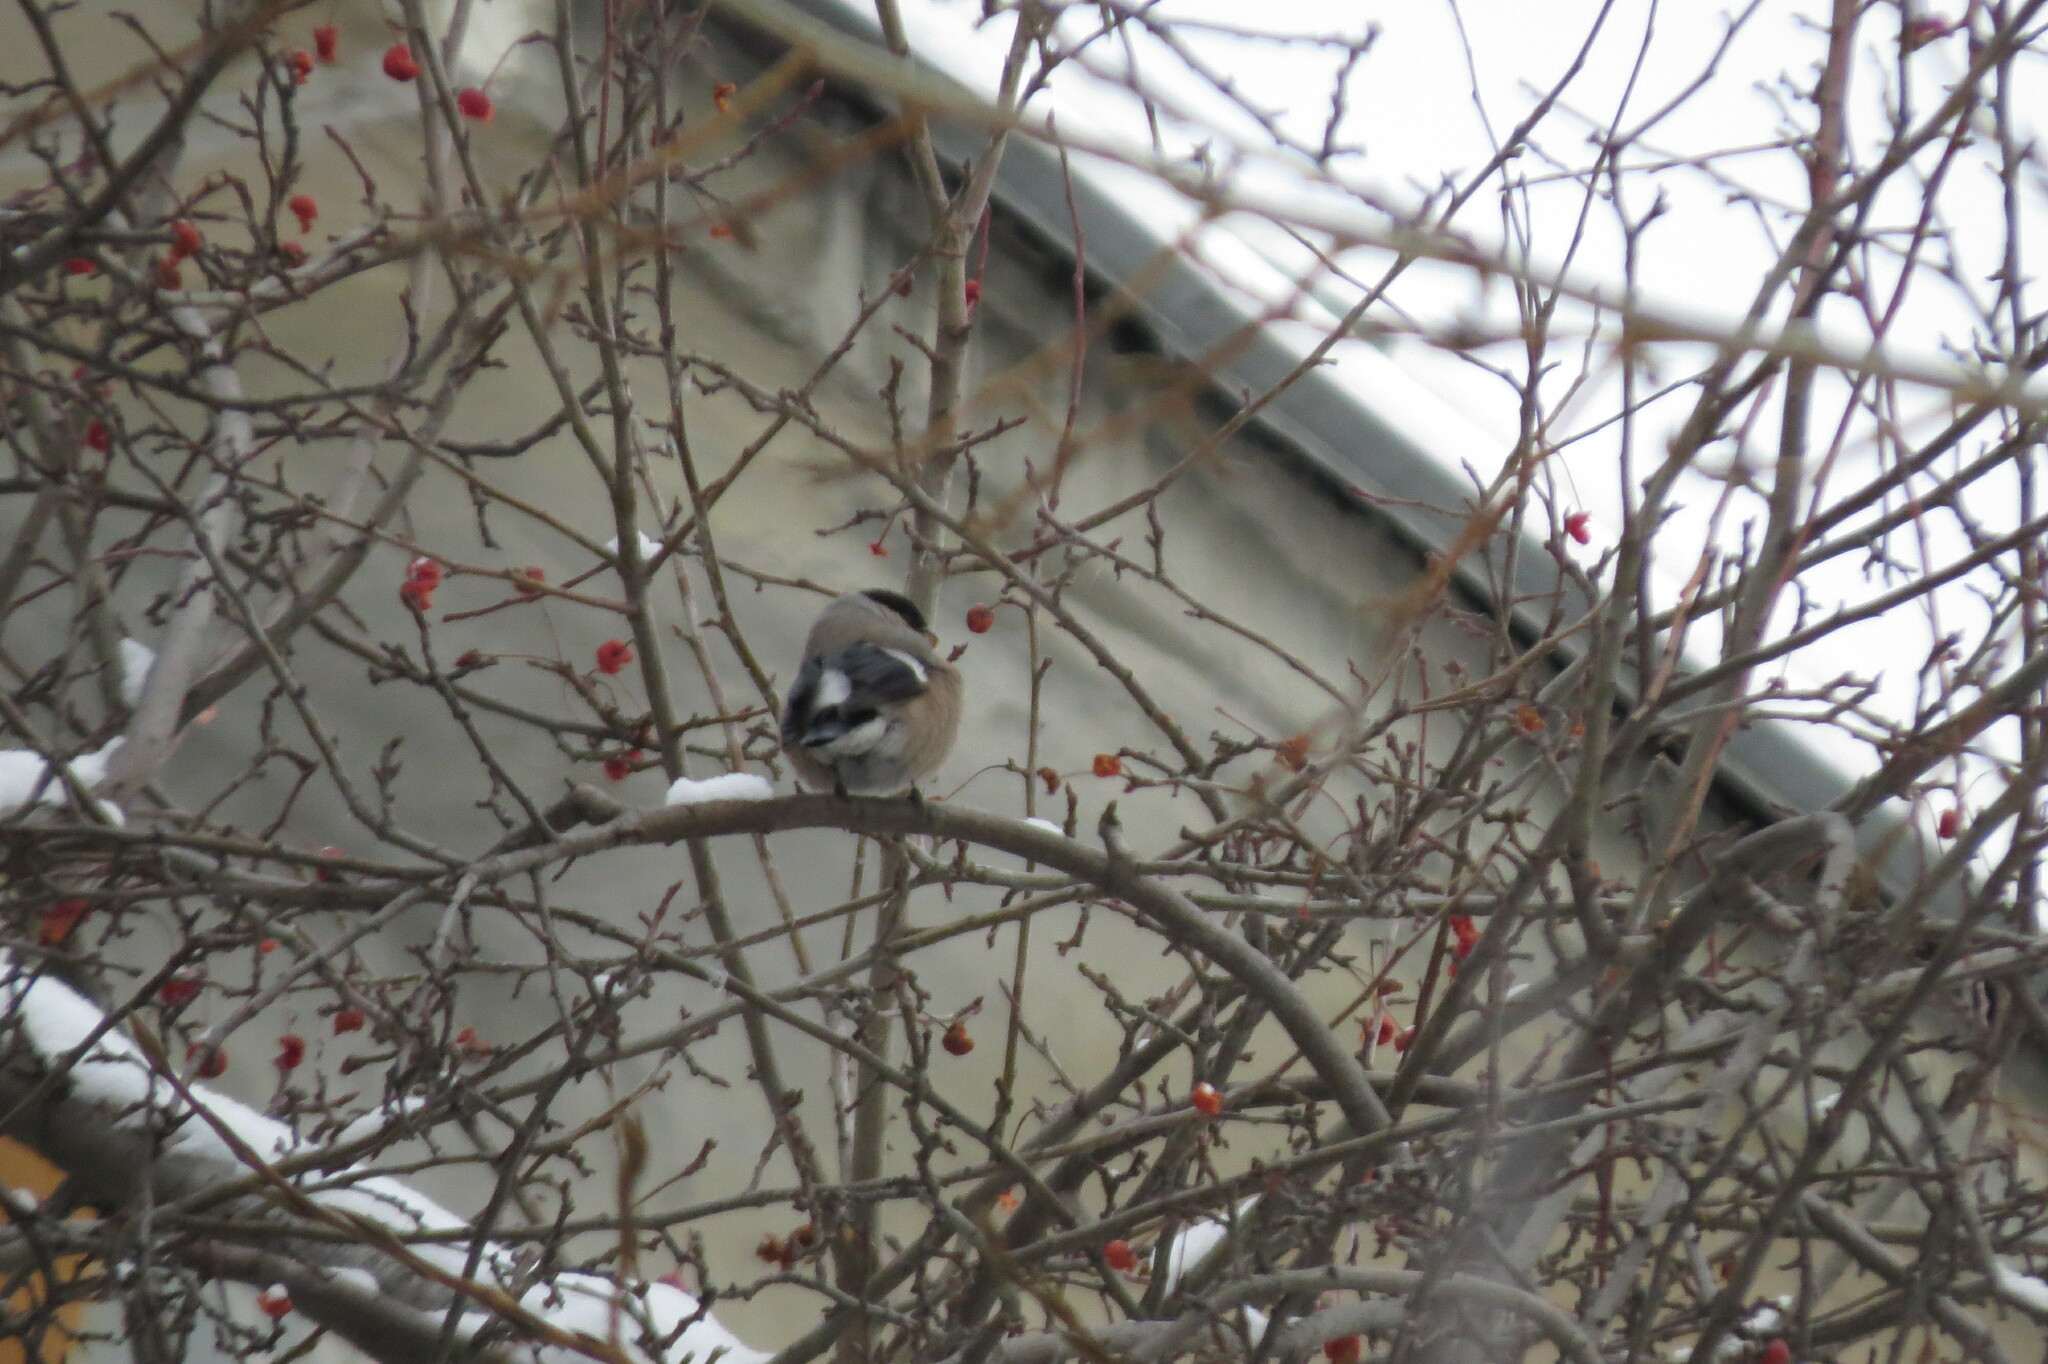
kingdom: Animalia
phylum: Chordata
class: Aves
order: Passeriformes
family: Fringillidae
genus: Pyrrhula
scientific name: Pyrrhula pyrrhula
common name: Eurasian bullfinch
